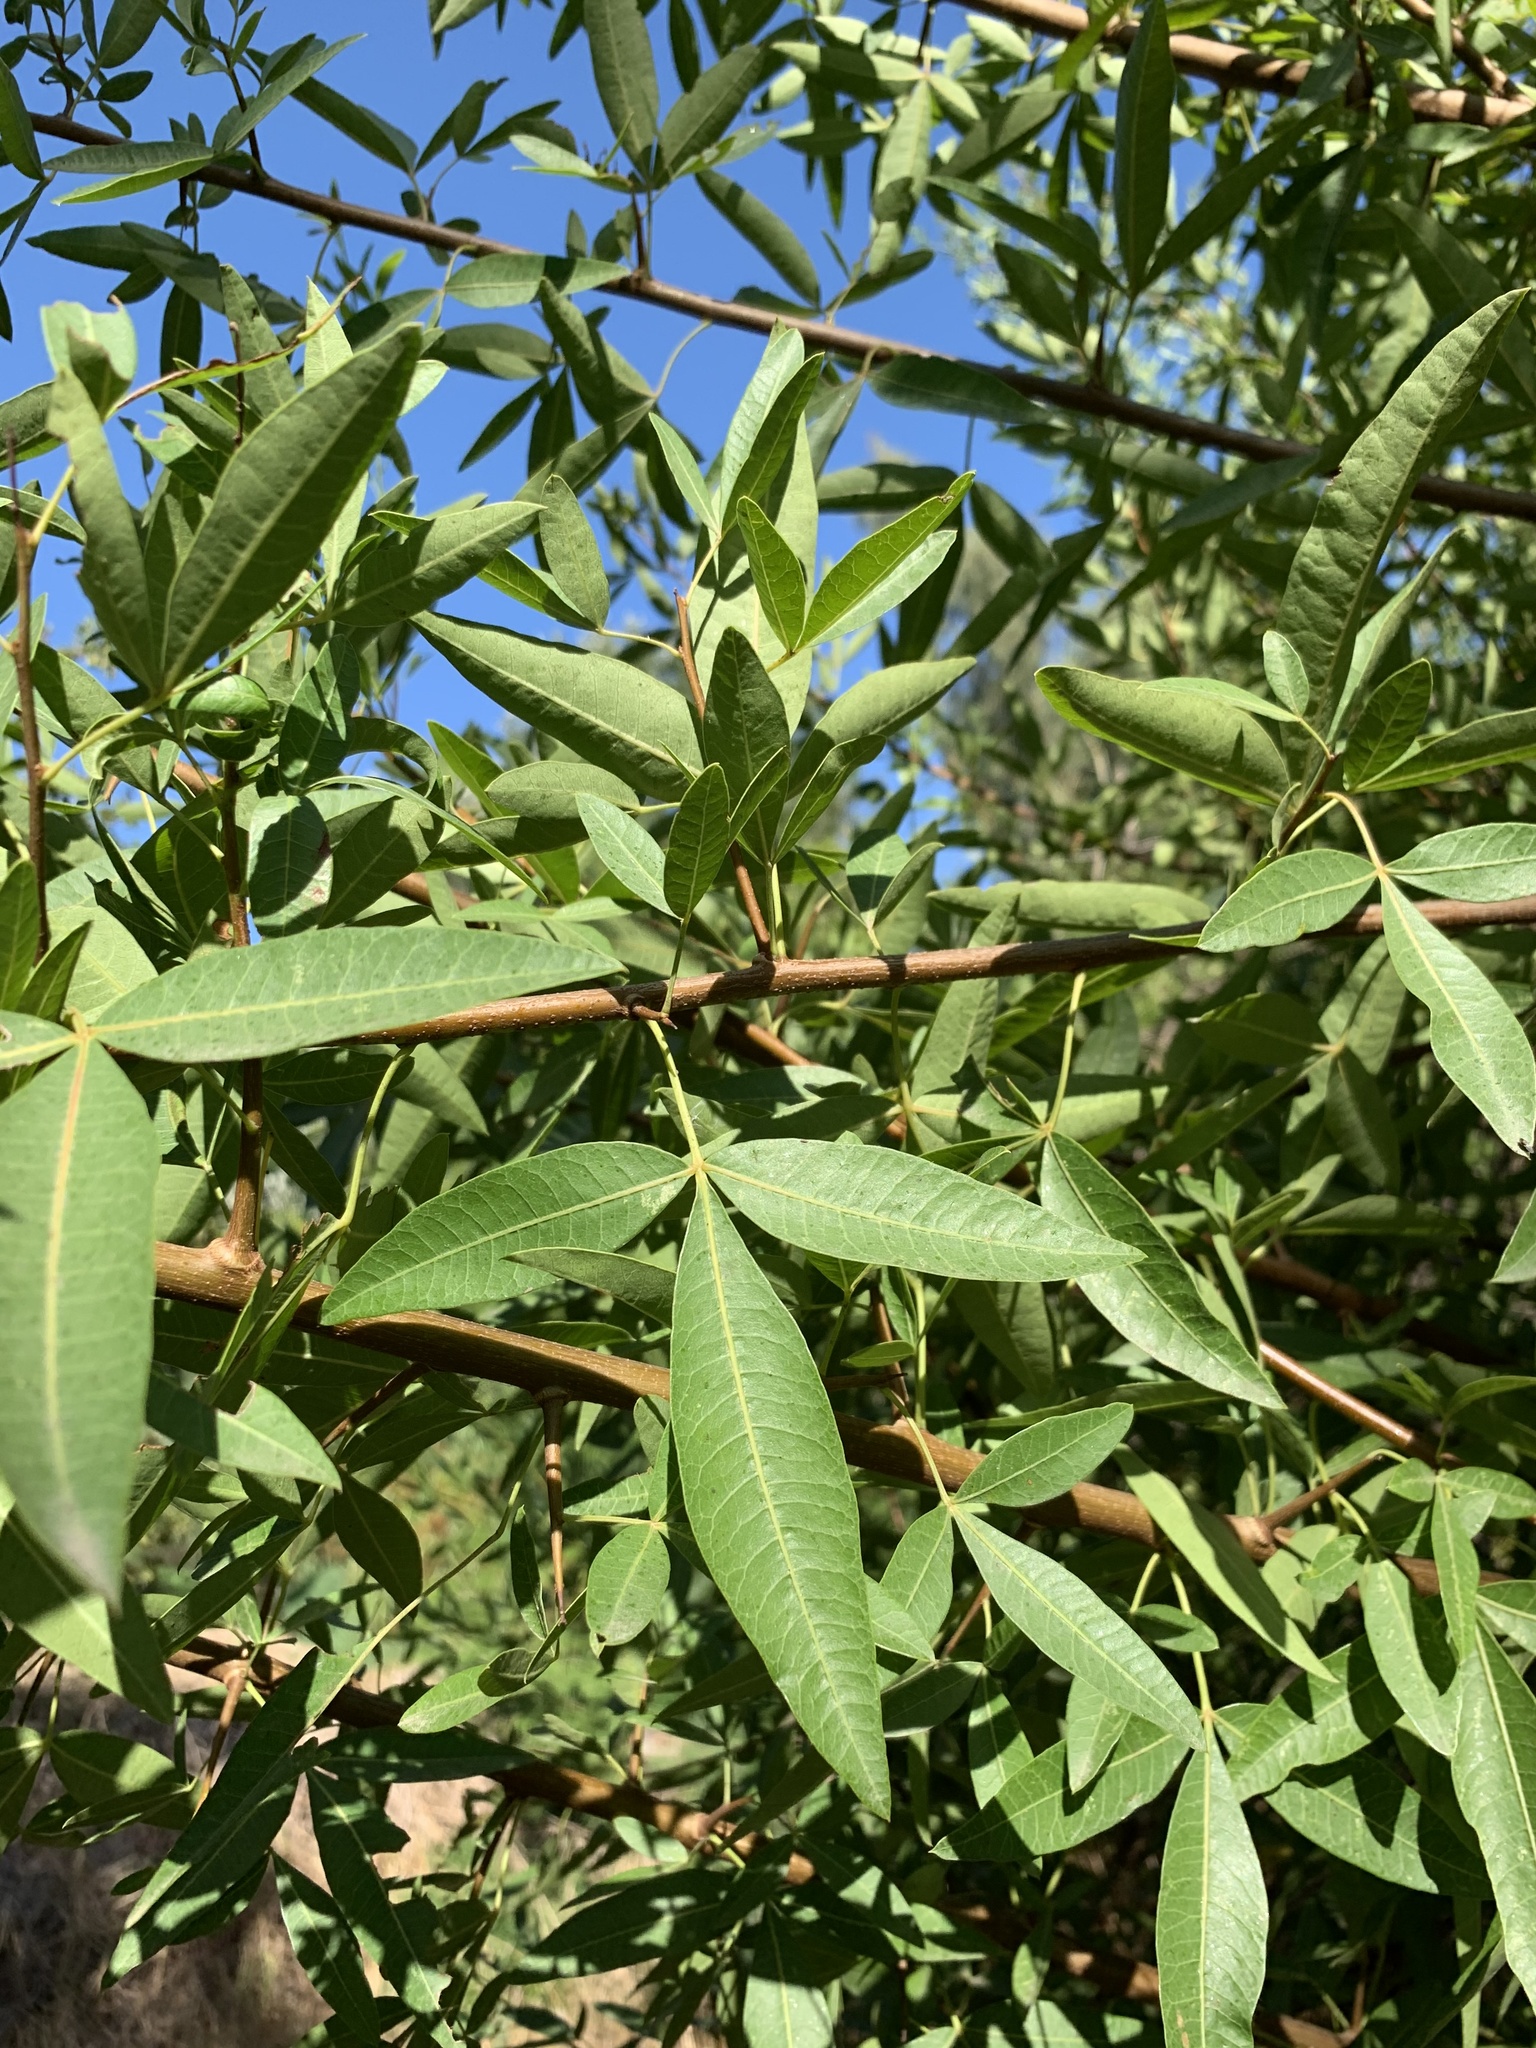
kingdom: Plantae
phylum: Tracheophyta
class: Magnoliopsida
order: Sapindales
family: Anacardiaceae
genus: Searsia
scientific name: Searsia pendulina
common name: White karee
